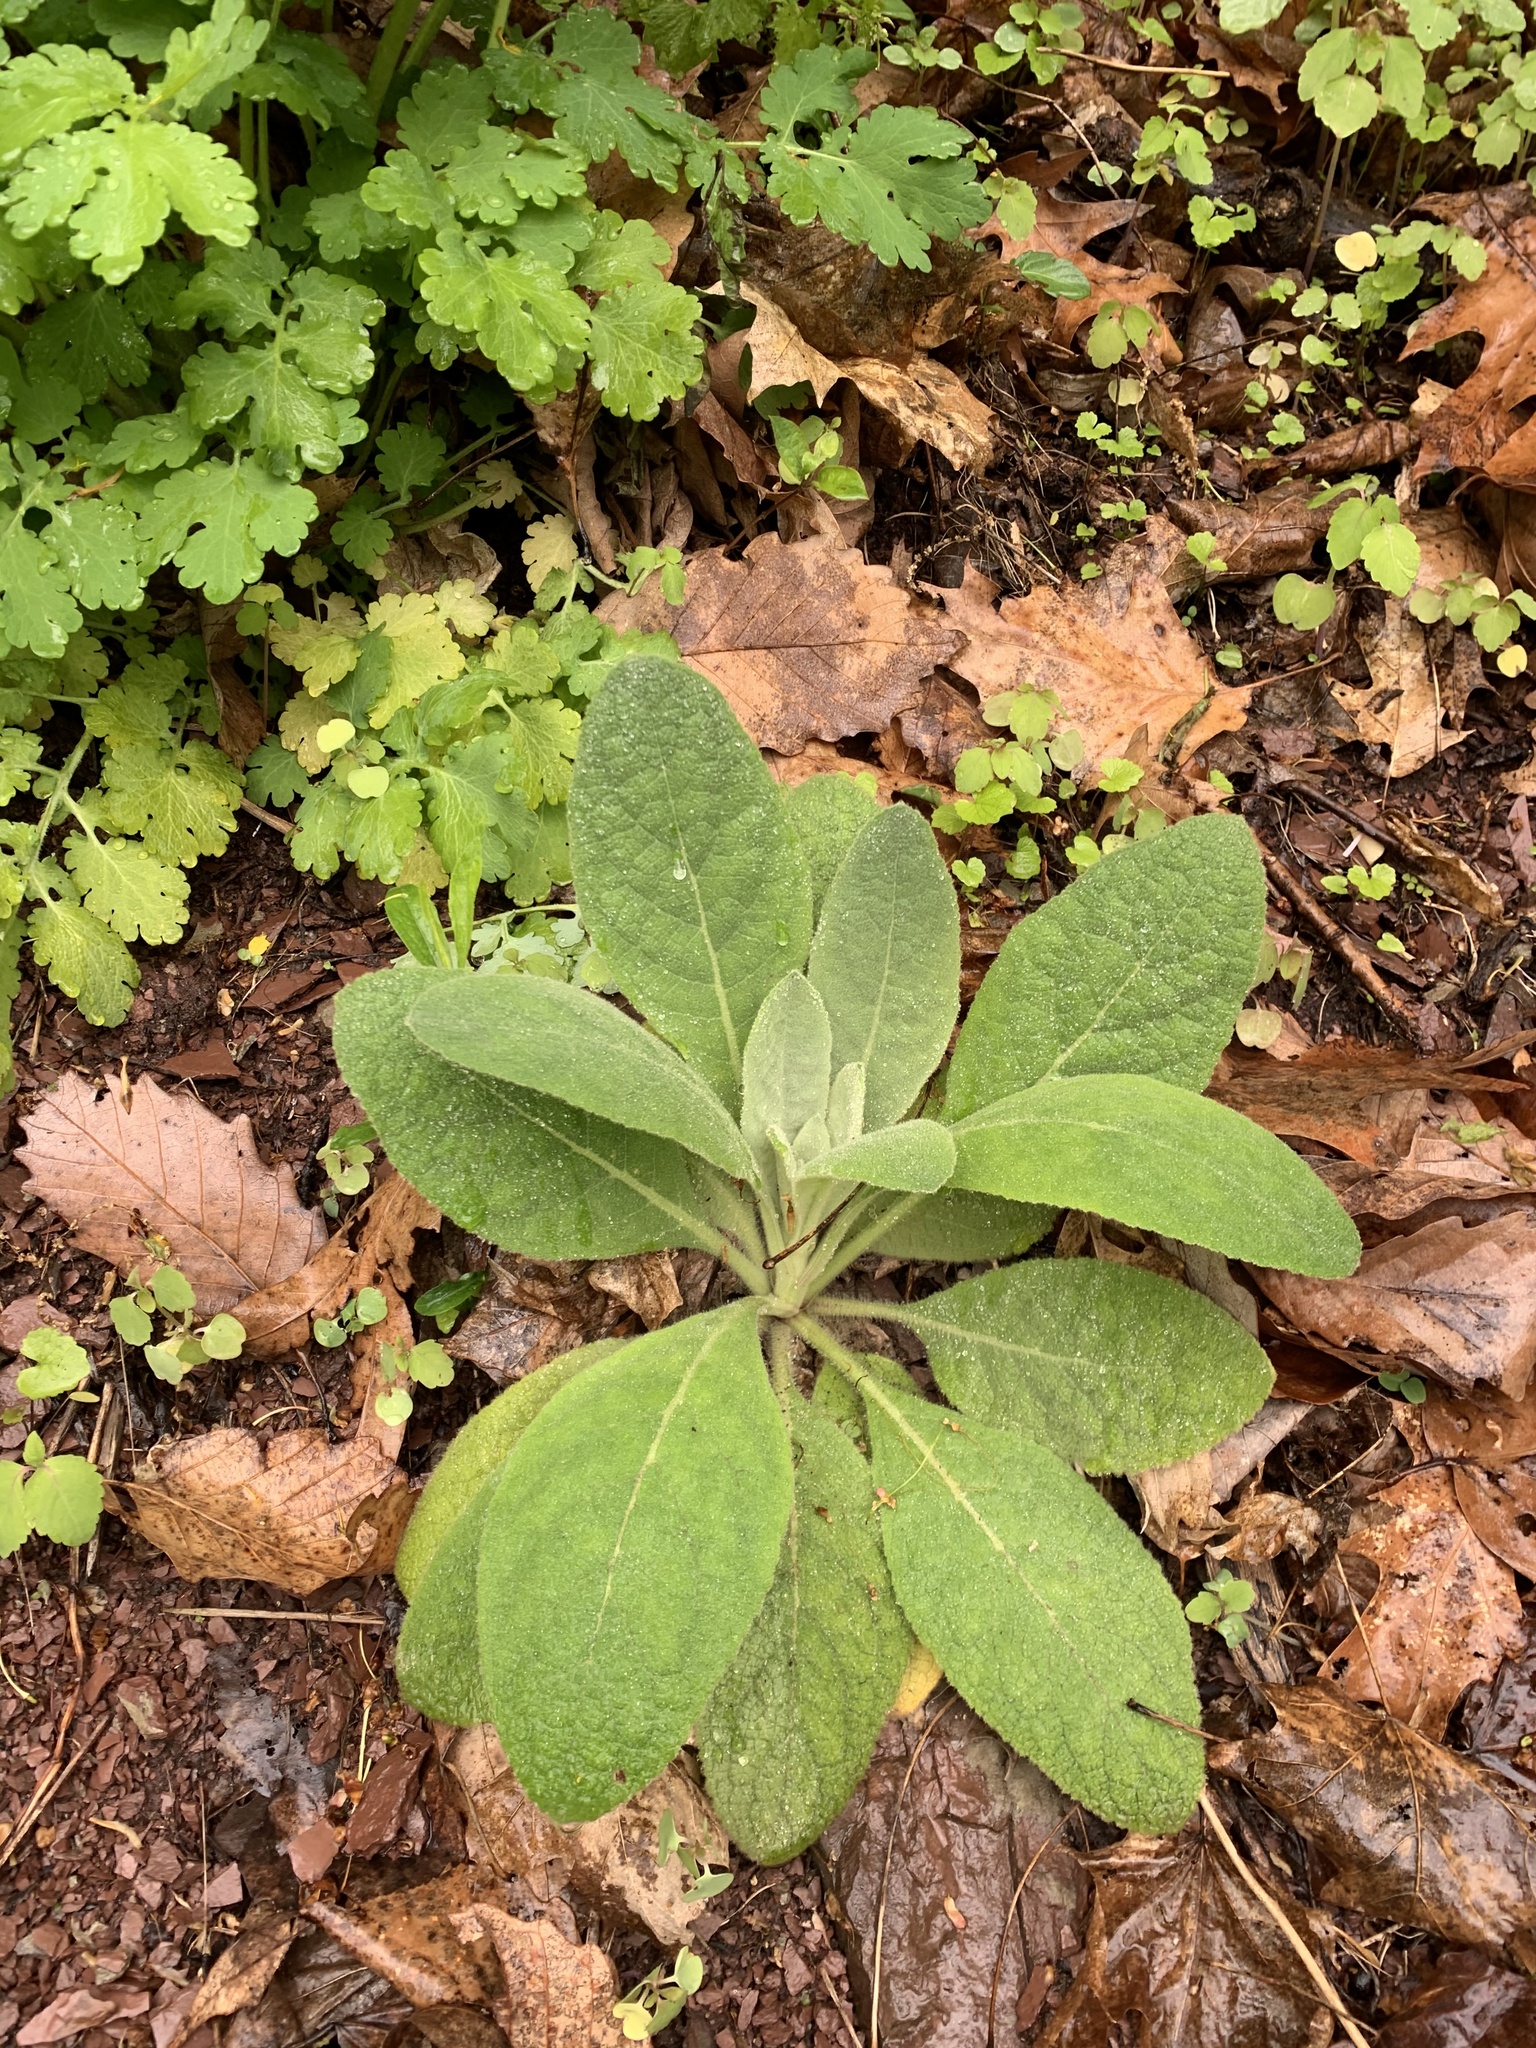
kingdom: Plantae
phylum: Tracheophyta
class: Magnoliopsida
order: Lamiales
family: Scrophulariaceae
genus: Verbascum
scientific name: Verbascum thapsus
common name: Common mullein
